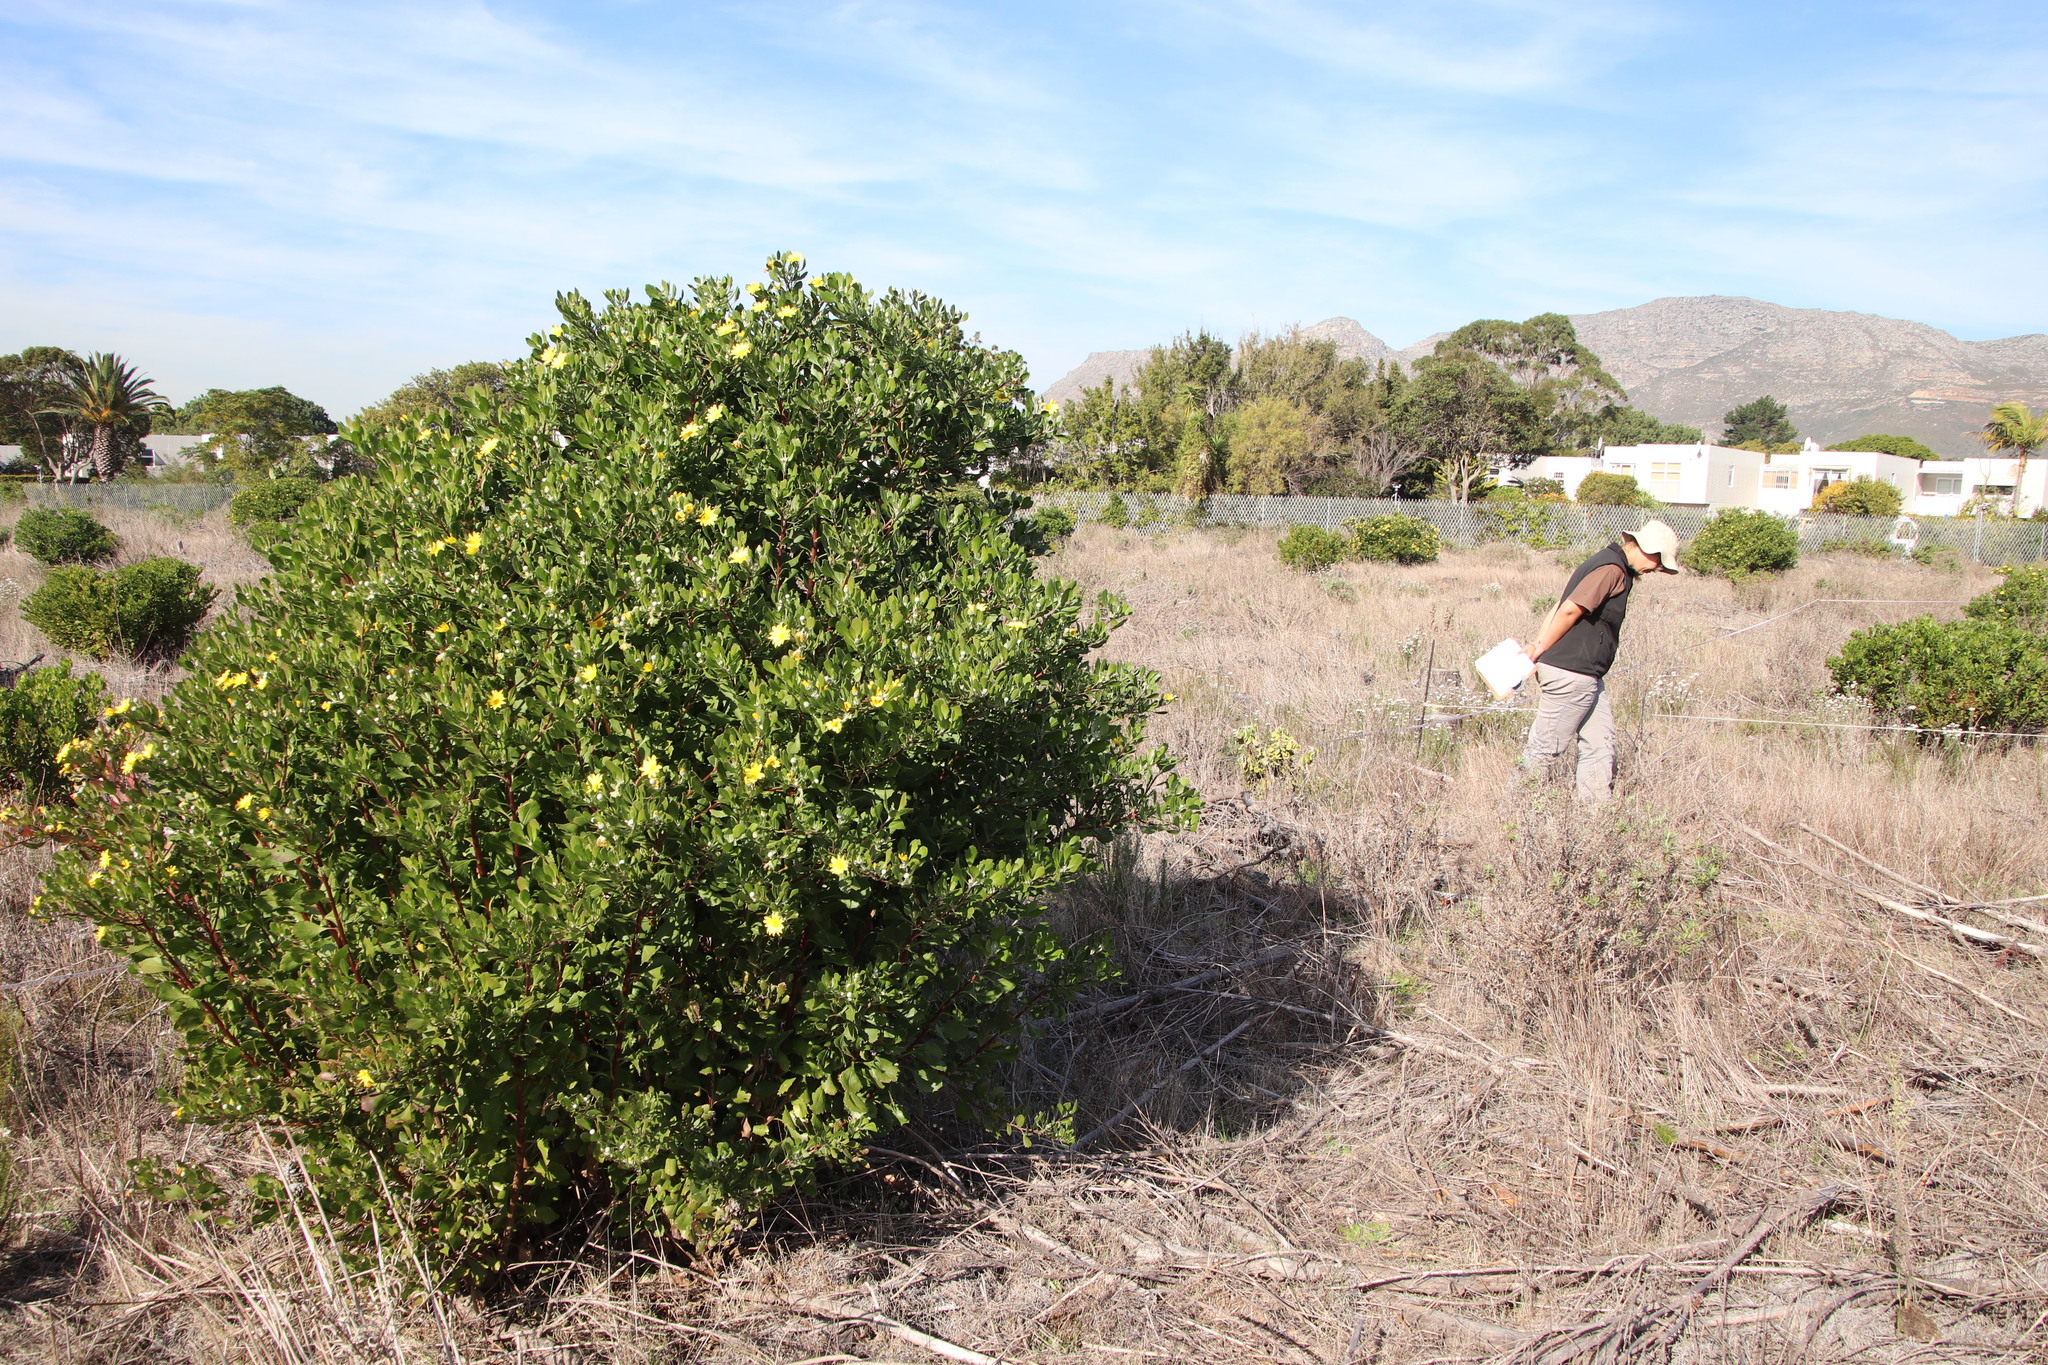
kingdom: Plantae
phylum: Tracheophyta
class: Magnoliopsida
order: Asterales
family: Asteraceae
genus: Osteospermum
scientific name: Osteospermum moniliferum
